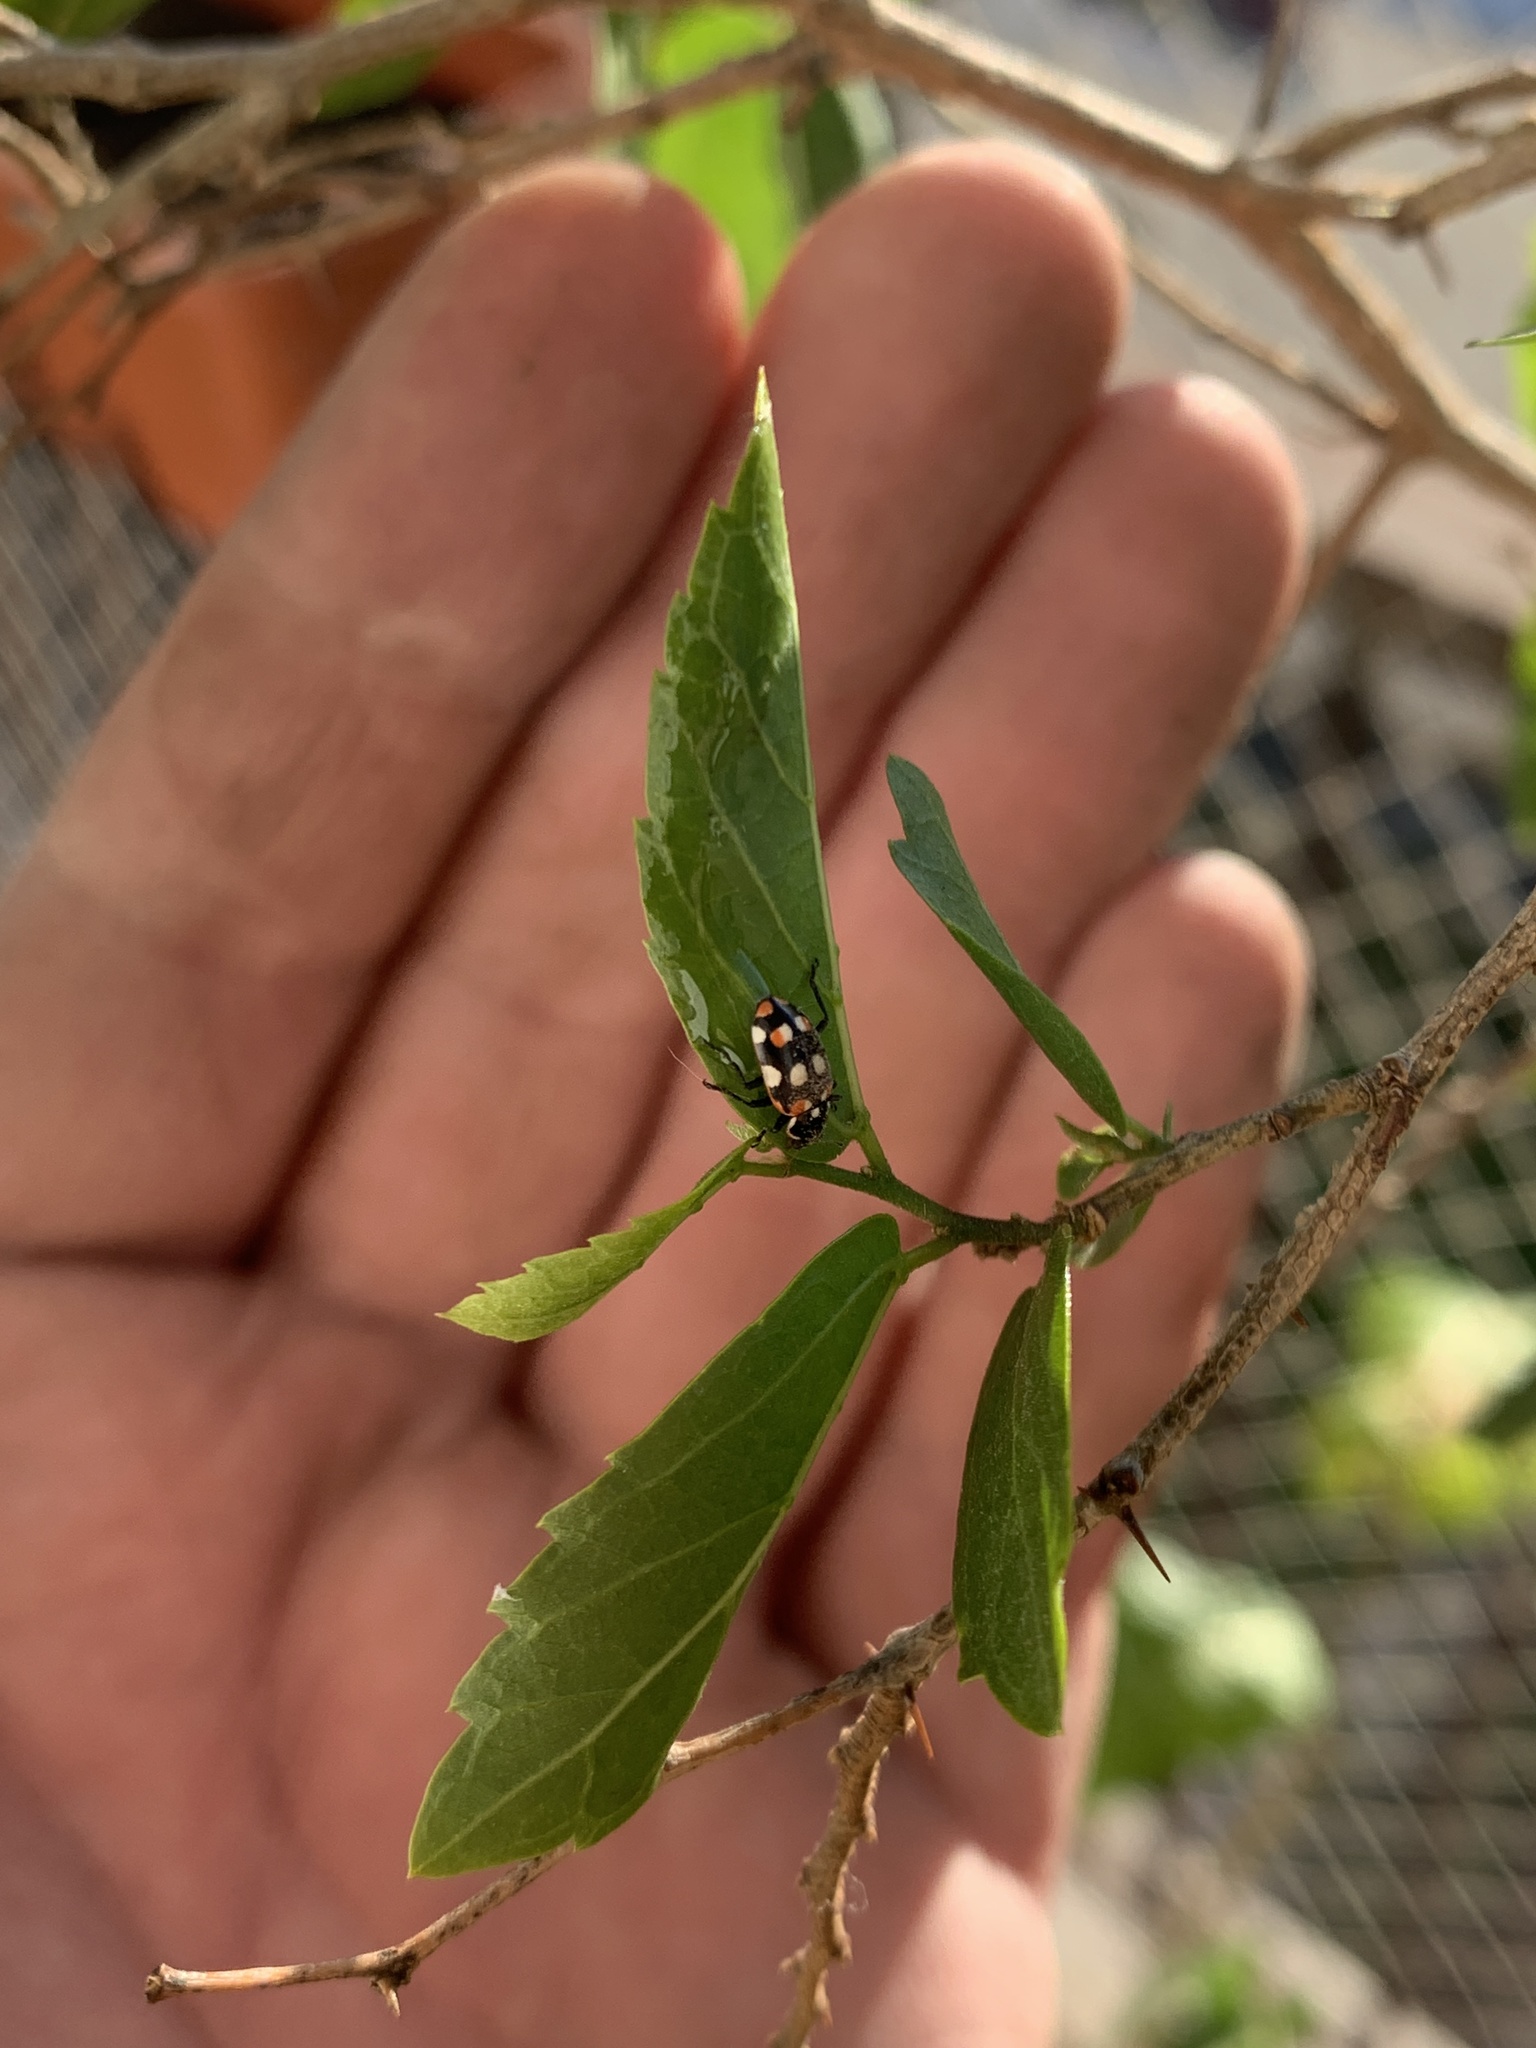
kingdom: Animalia
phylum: Arthropoda
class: Insecta
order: Coleoptera
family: Coccinellidae
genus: Eriopis
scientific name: Eriopis connexa
